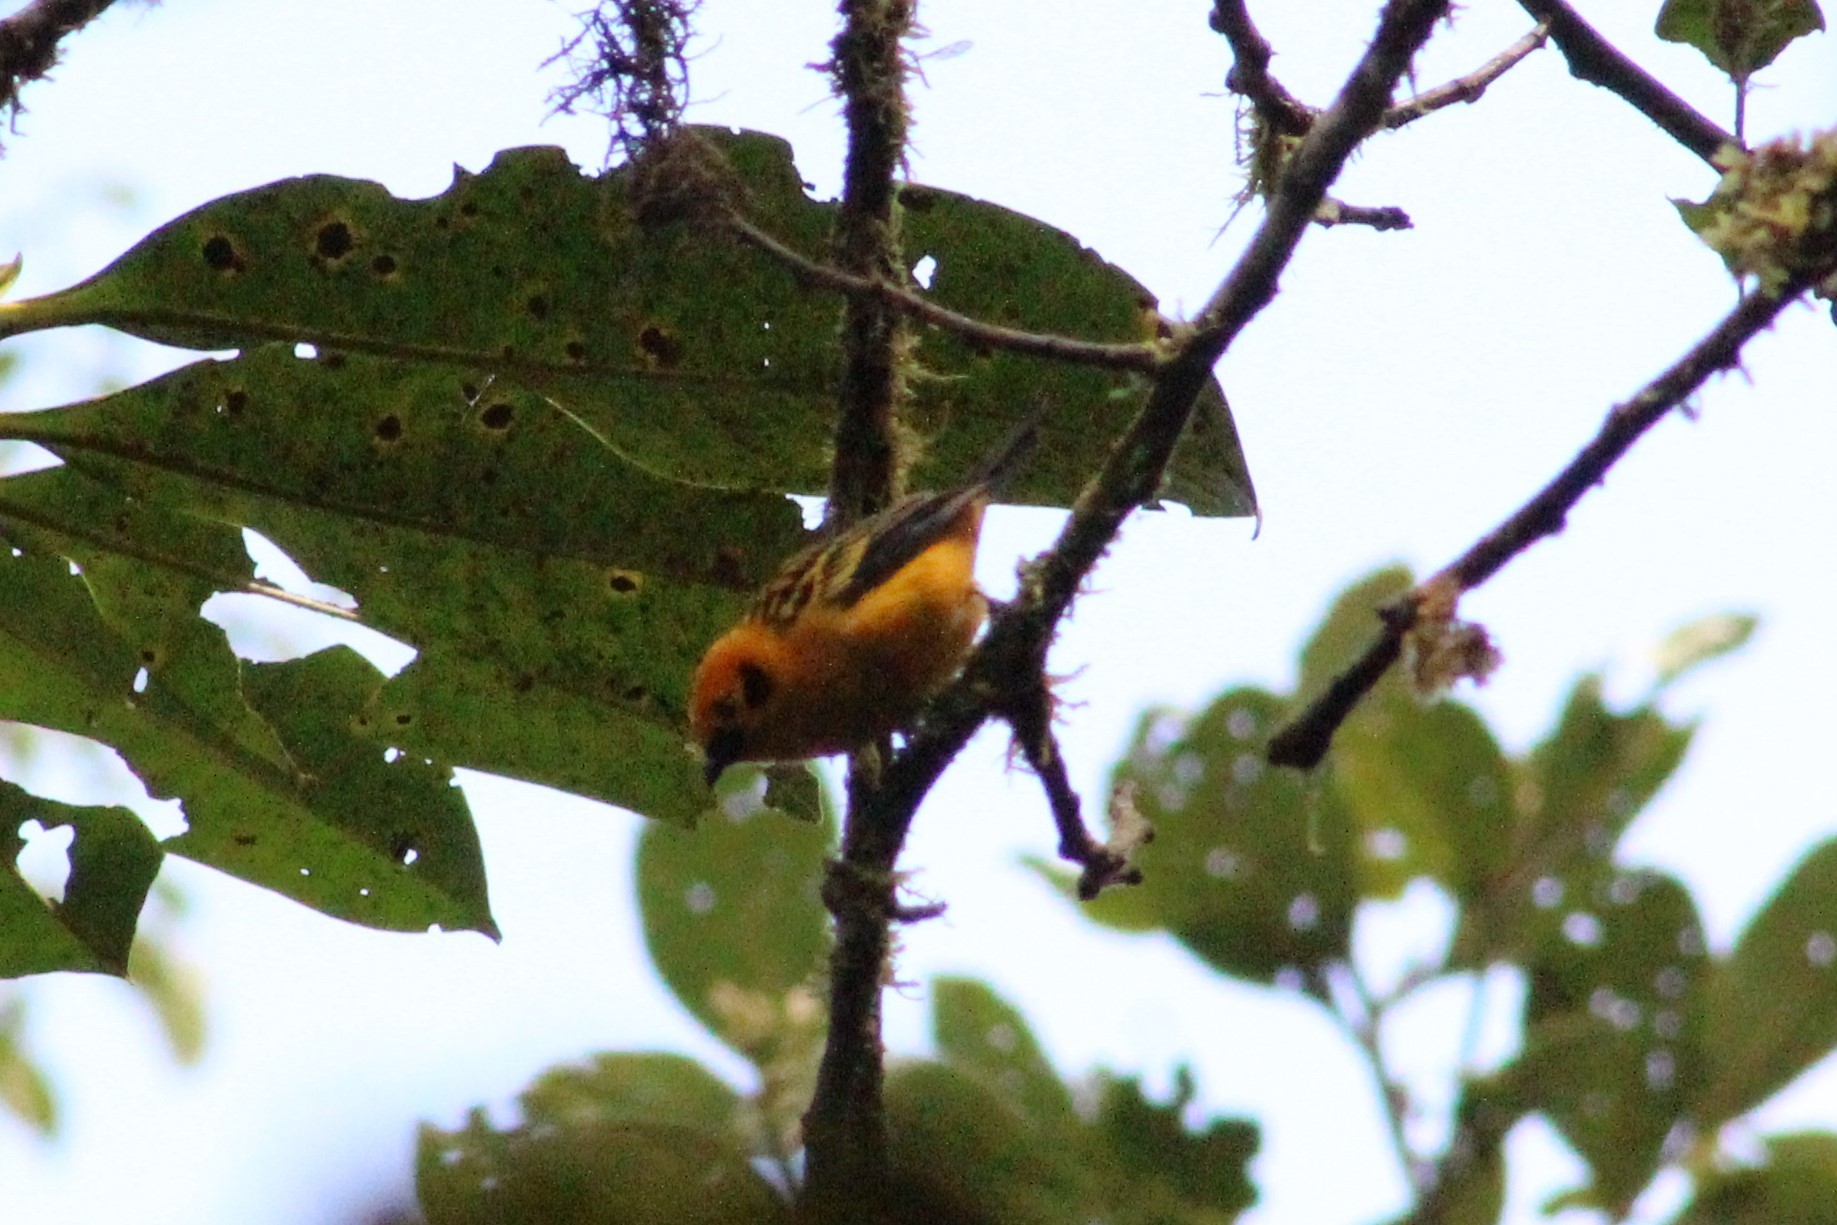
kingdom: Animalia
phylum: Chordata
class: Aves
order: Passeriformes
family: Thraupidae
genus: Tangara
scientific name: Tangara arthus
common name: Golden tanager
